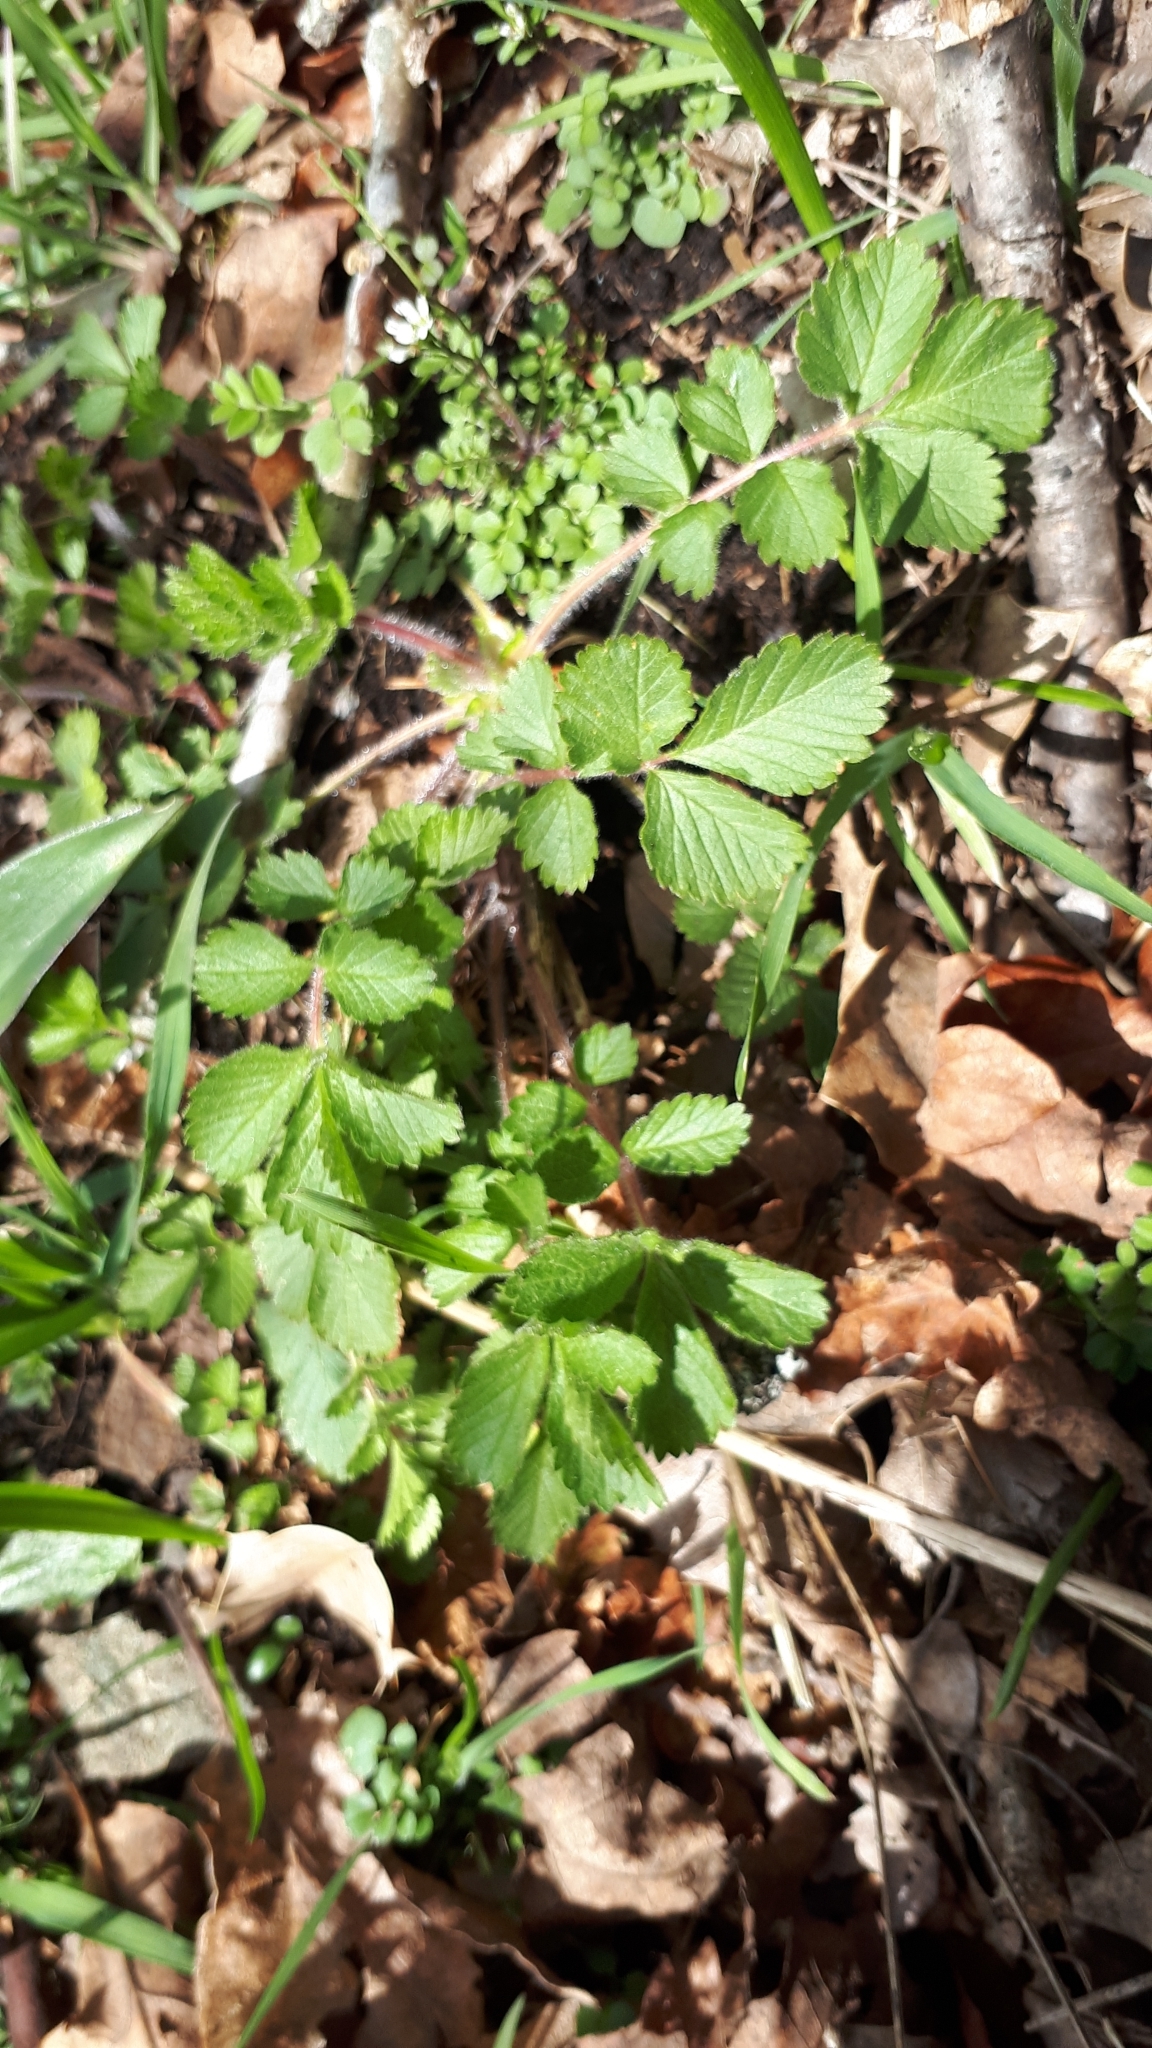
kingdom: Plantae
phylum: Tracheophyta
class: Magnoliopsida
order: Rosales
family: Rosaceae
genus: Drymocallis
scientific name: Drymocallis glandulosa
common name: Sticky cinquefoil
